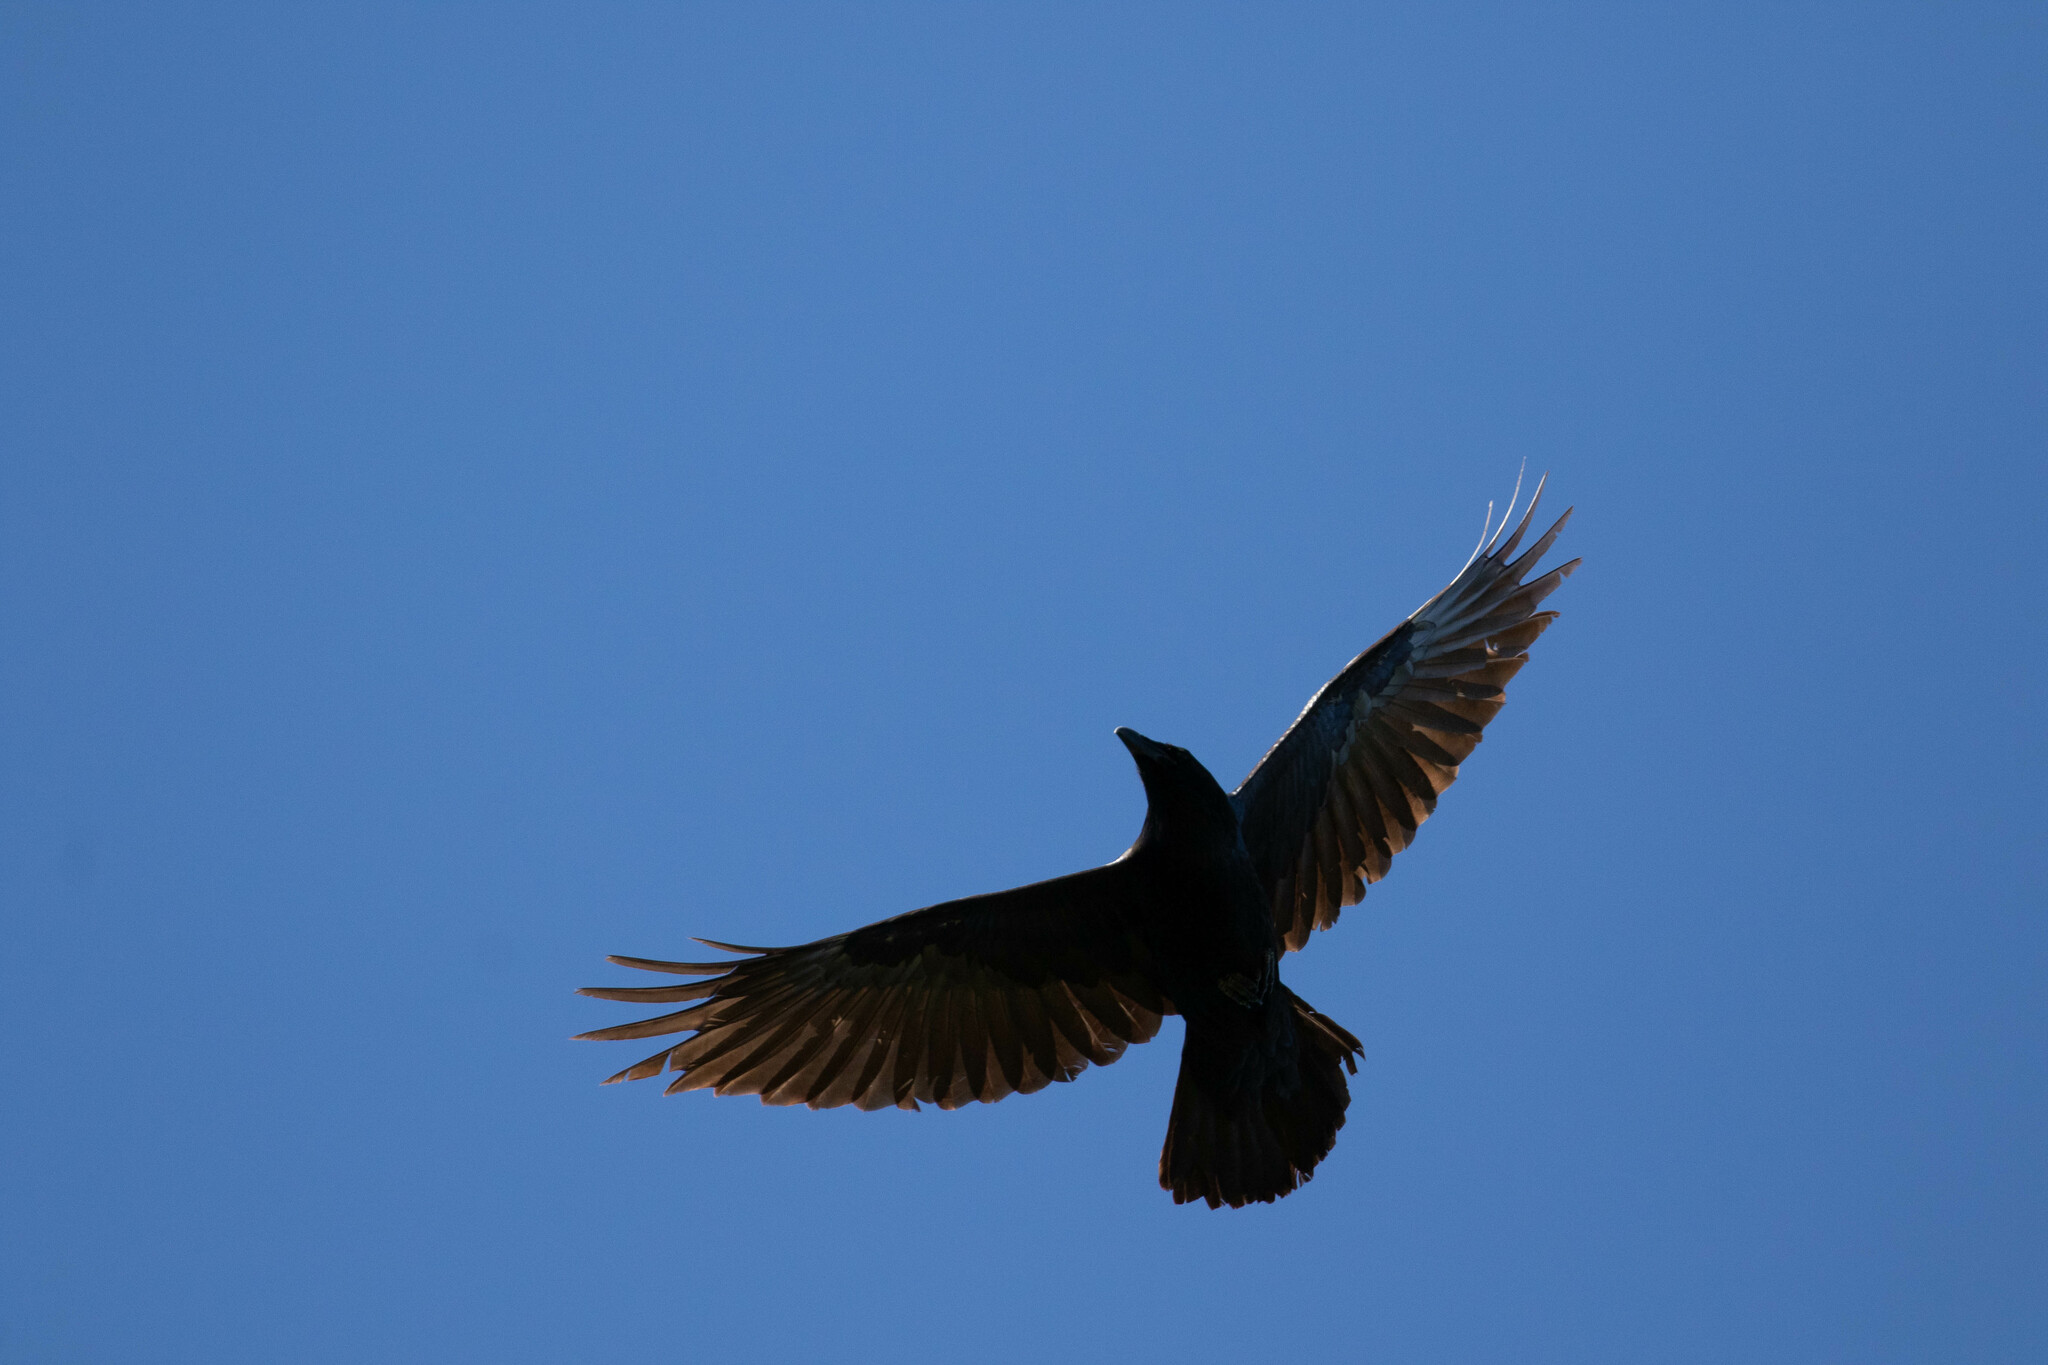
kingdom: Animalia
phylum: Chordata
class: Aves
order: Passeriformes
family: Corvidae
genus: Corvus
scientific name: Corvus corax
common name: Common raven
